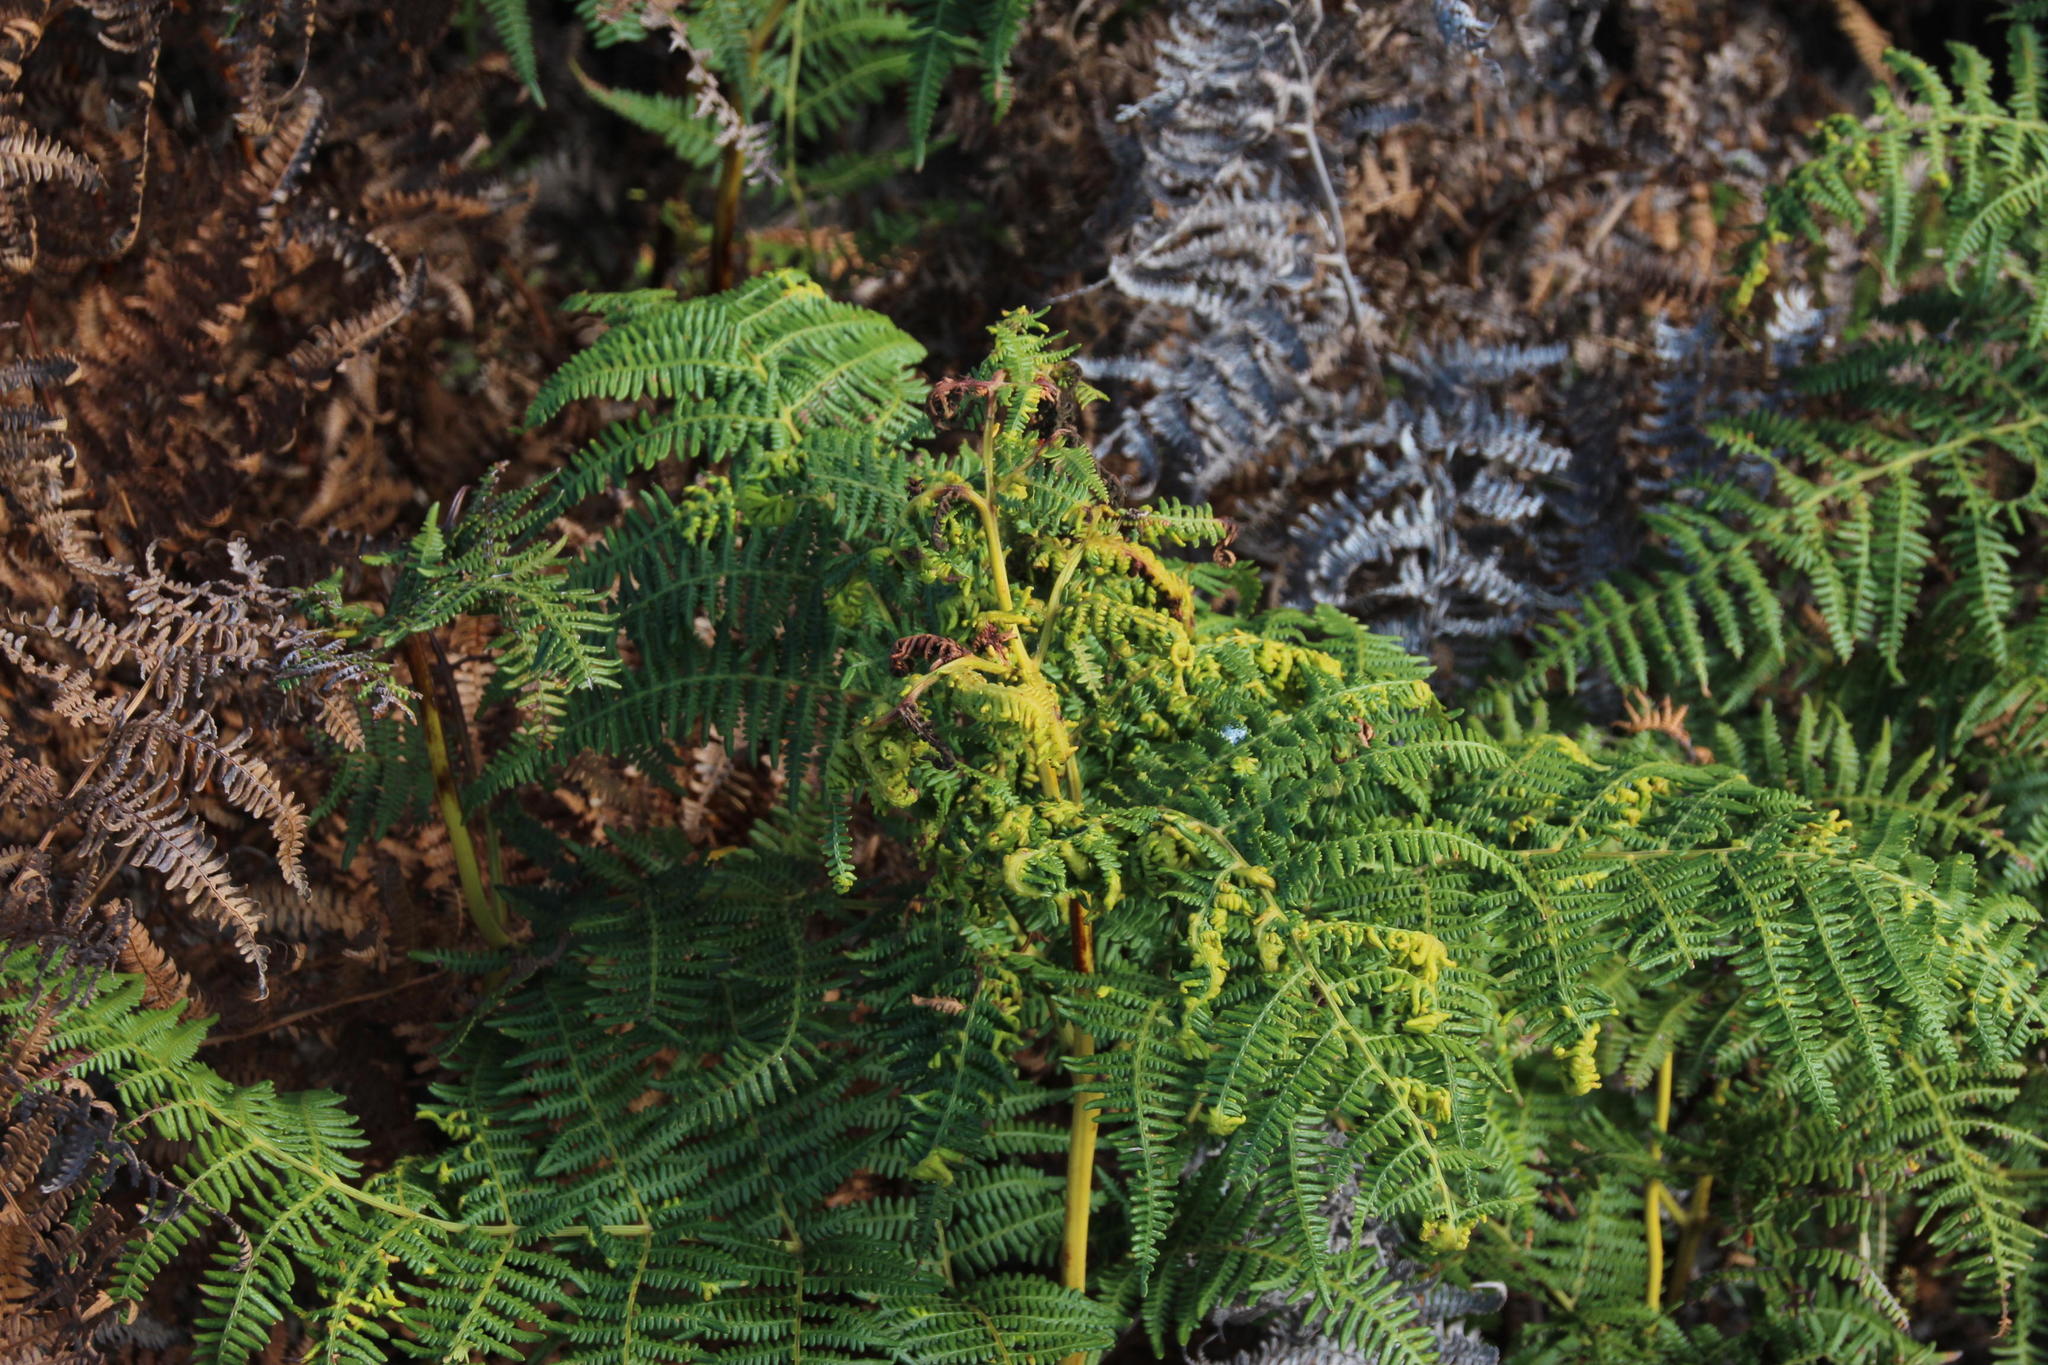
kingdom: Plantae
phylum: Tracheophyta
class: Polypodiopsida
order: Polypodiales
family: Dennstaedtiaceae
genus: Pteridium
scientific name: Pteridium aquilinum
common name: Bracken
